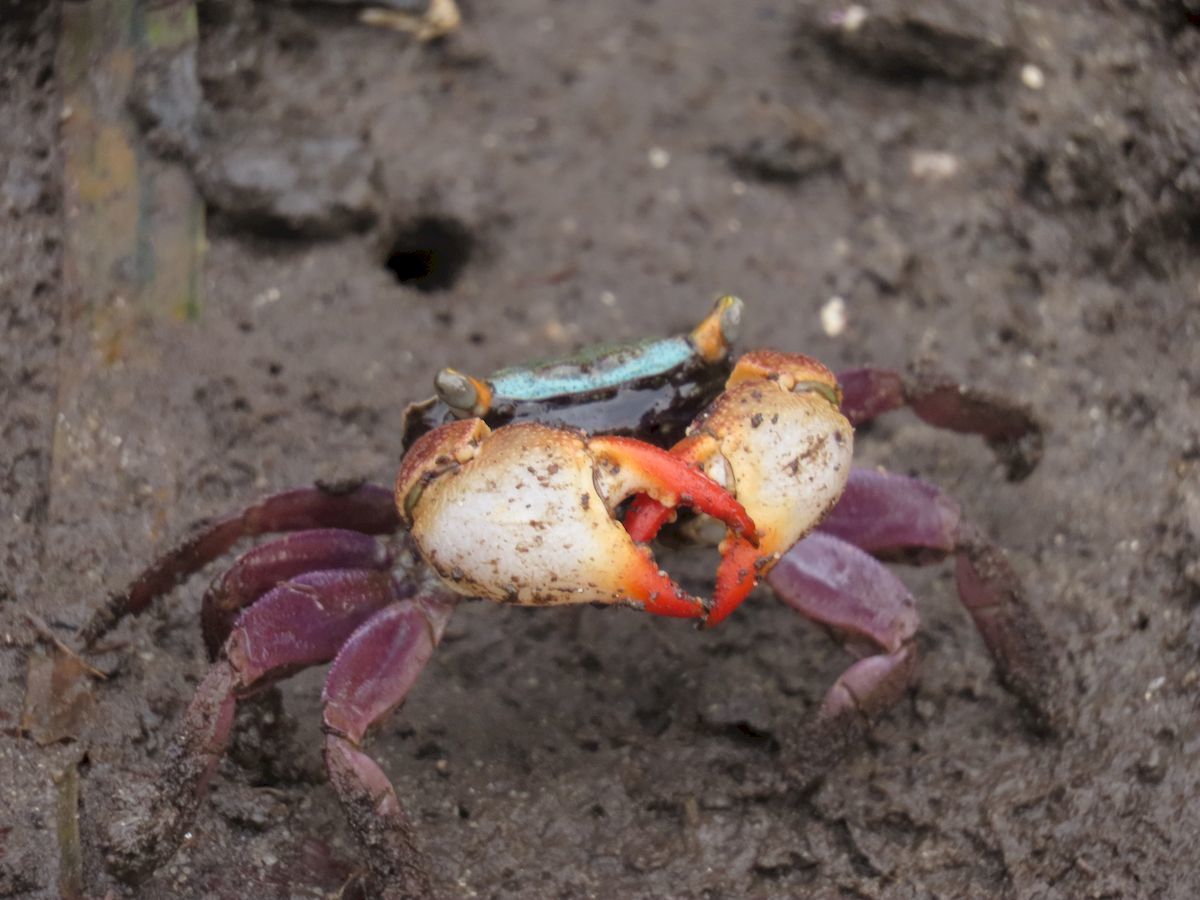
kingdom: Animalia
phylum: Arthropoda
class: Malacostraca
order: Decapoda
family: Sesarmidae
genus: Parasesarma
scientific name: Parasesarma erythodactylum
